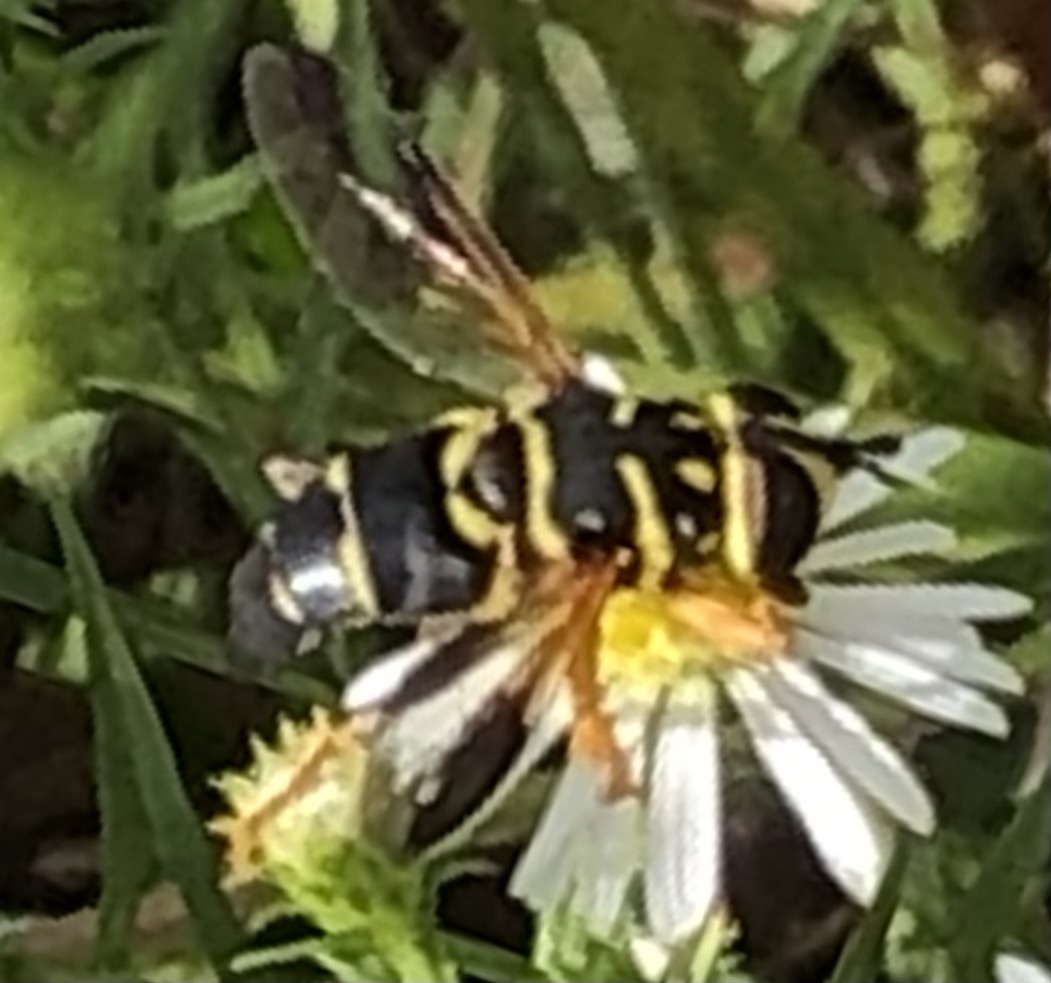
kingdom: Animalia
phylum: Arthropoda
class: Insecta
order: Diptera
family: Syrphidae
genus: Meromacrus
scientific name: Meromacrus acutus
